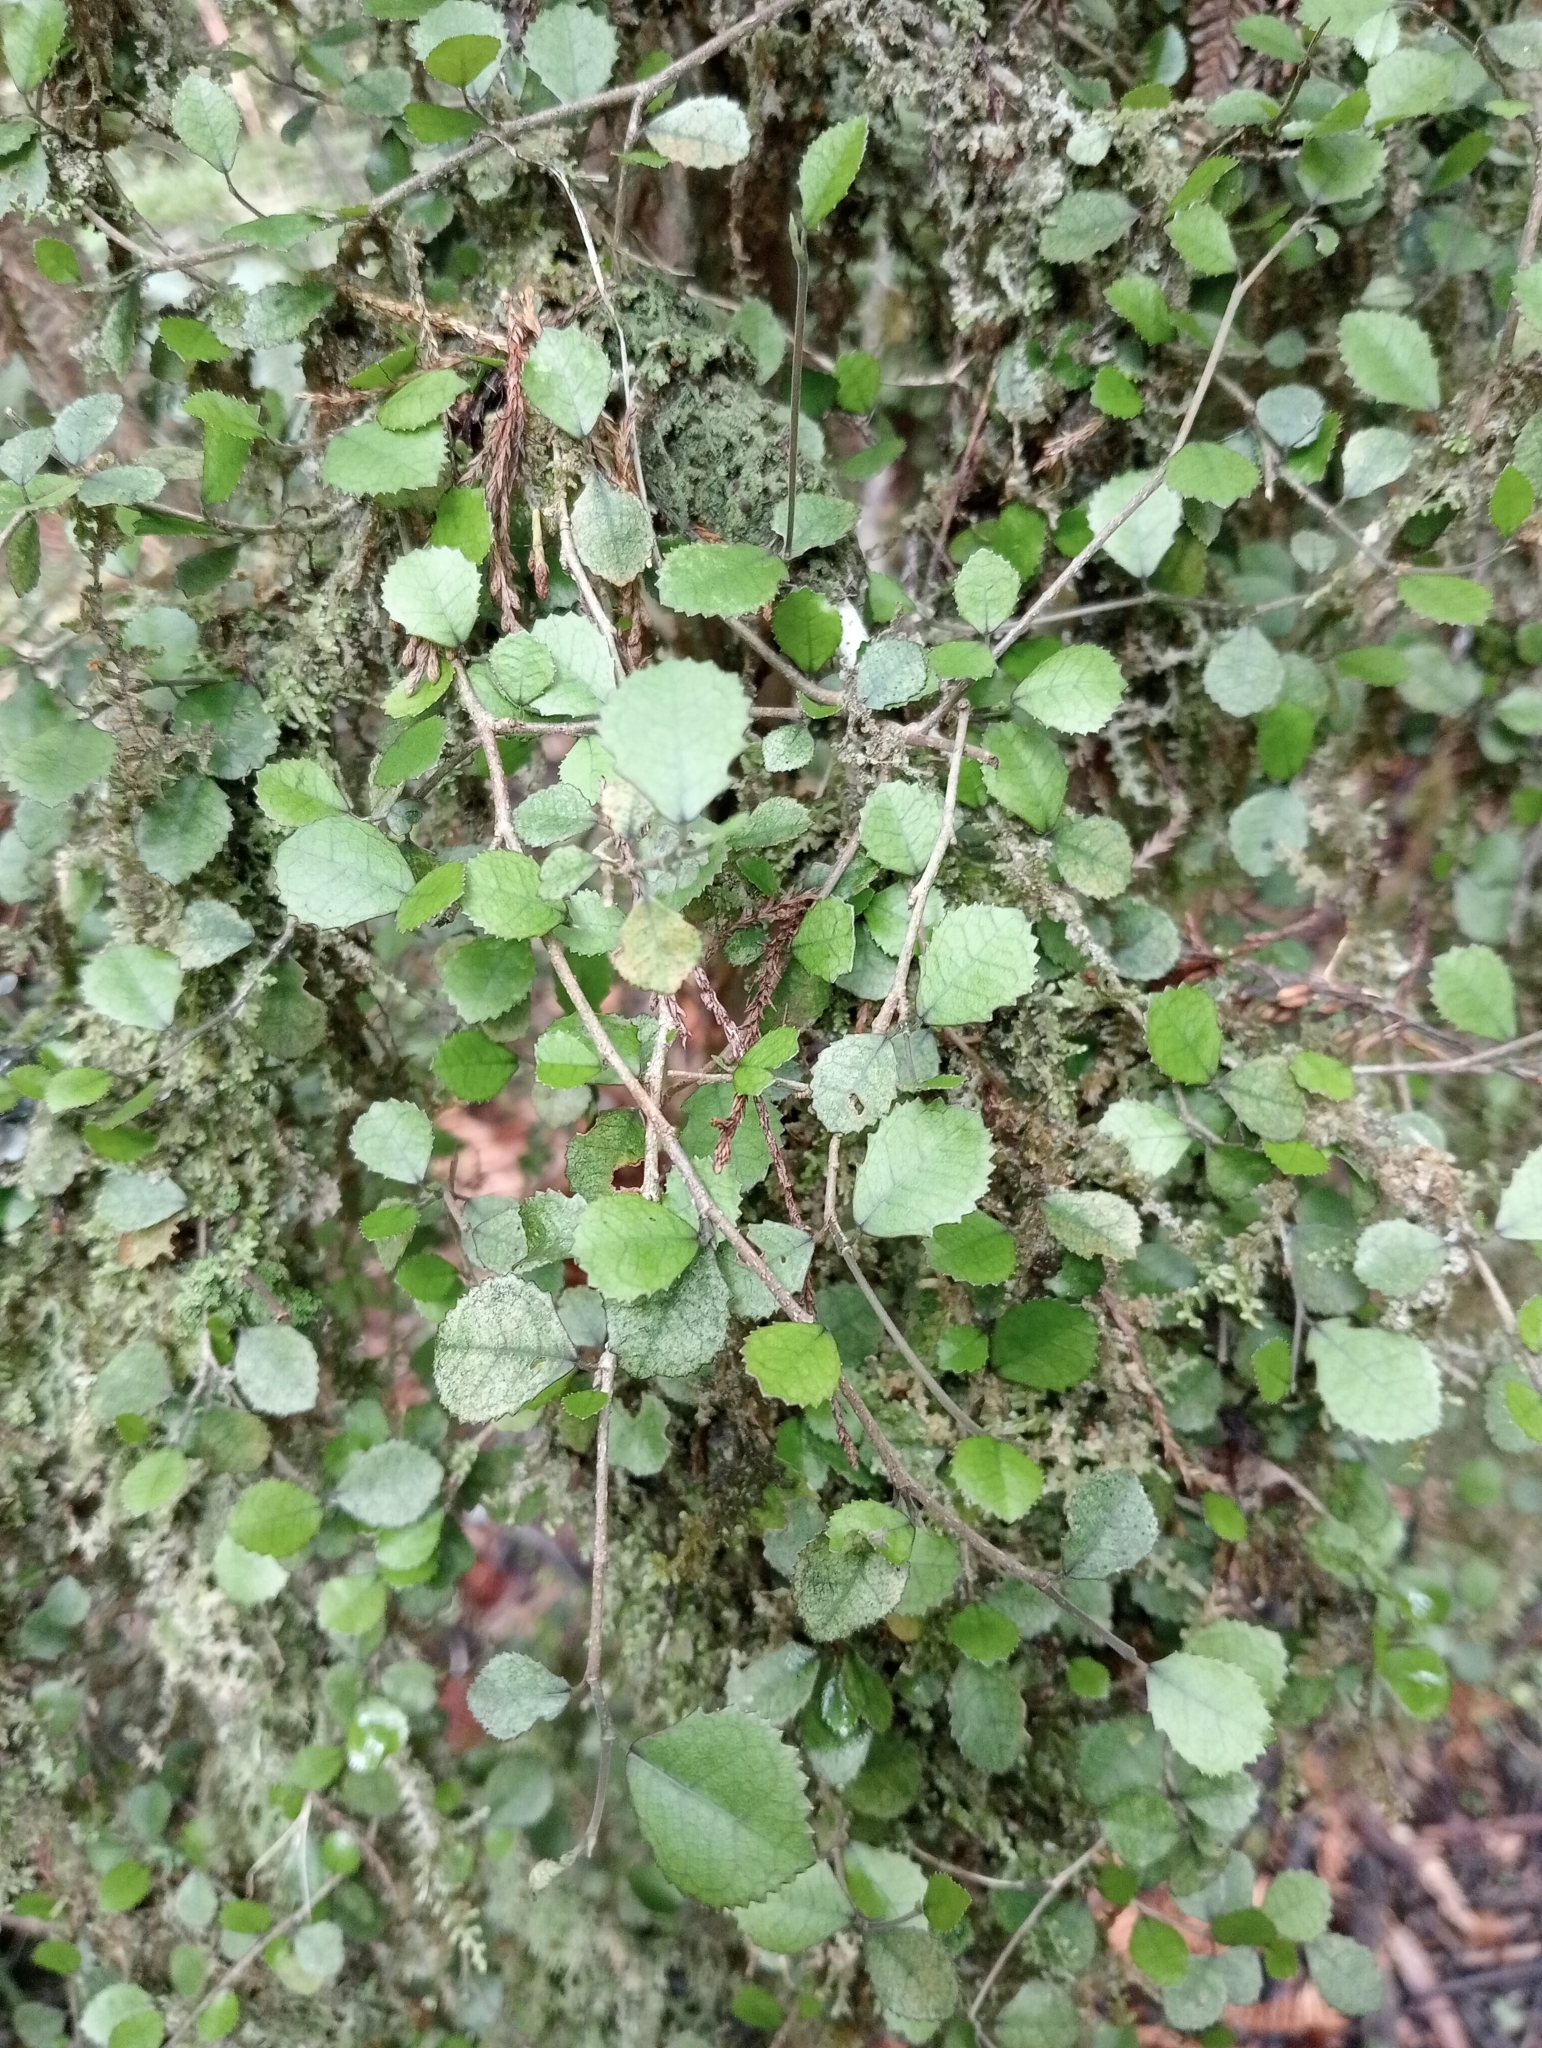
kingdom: Plantae
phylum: Tracheophyta
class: Magnoliopsida
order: Rosales
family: Moraceae
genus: Paratrophis
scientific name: Paratrophis microphylla
